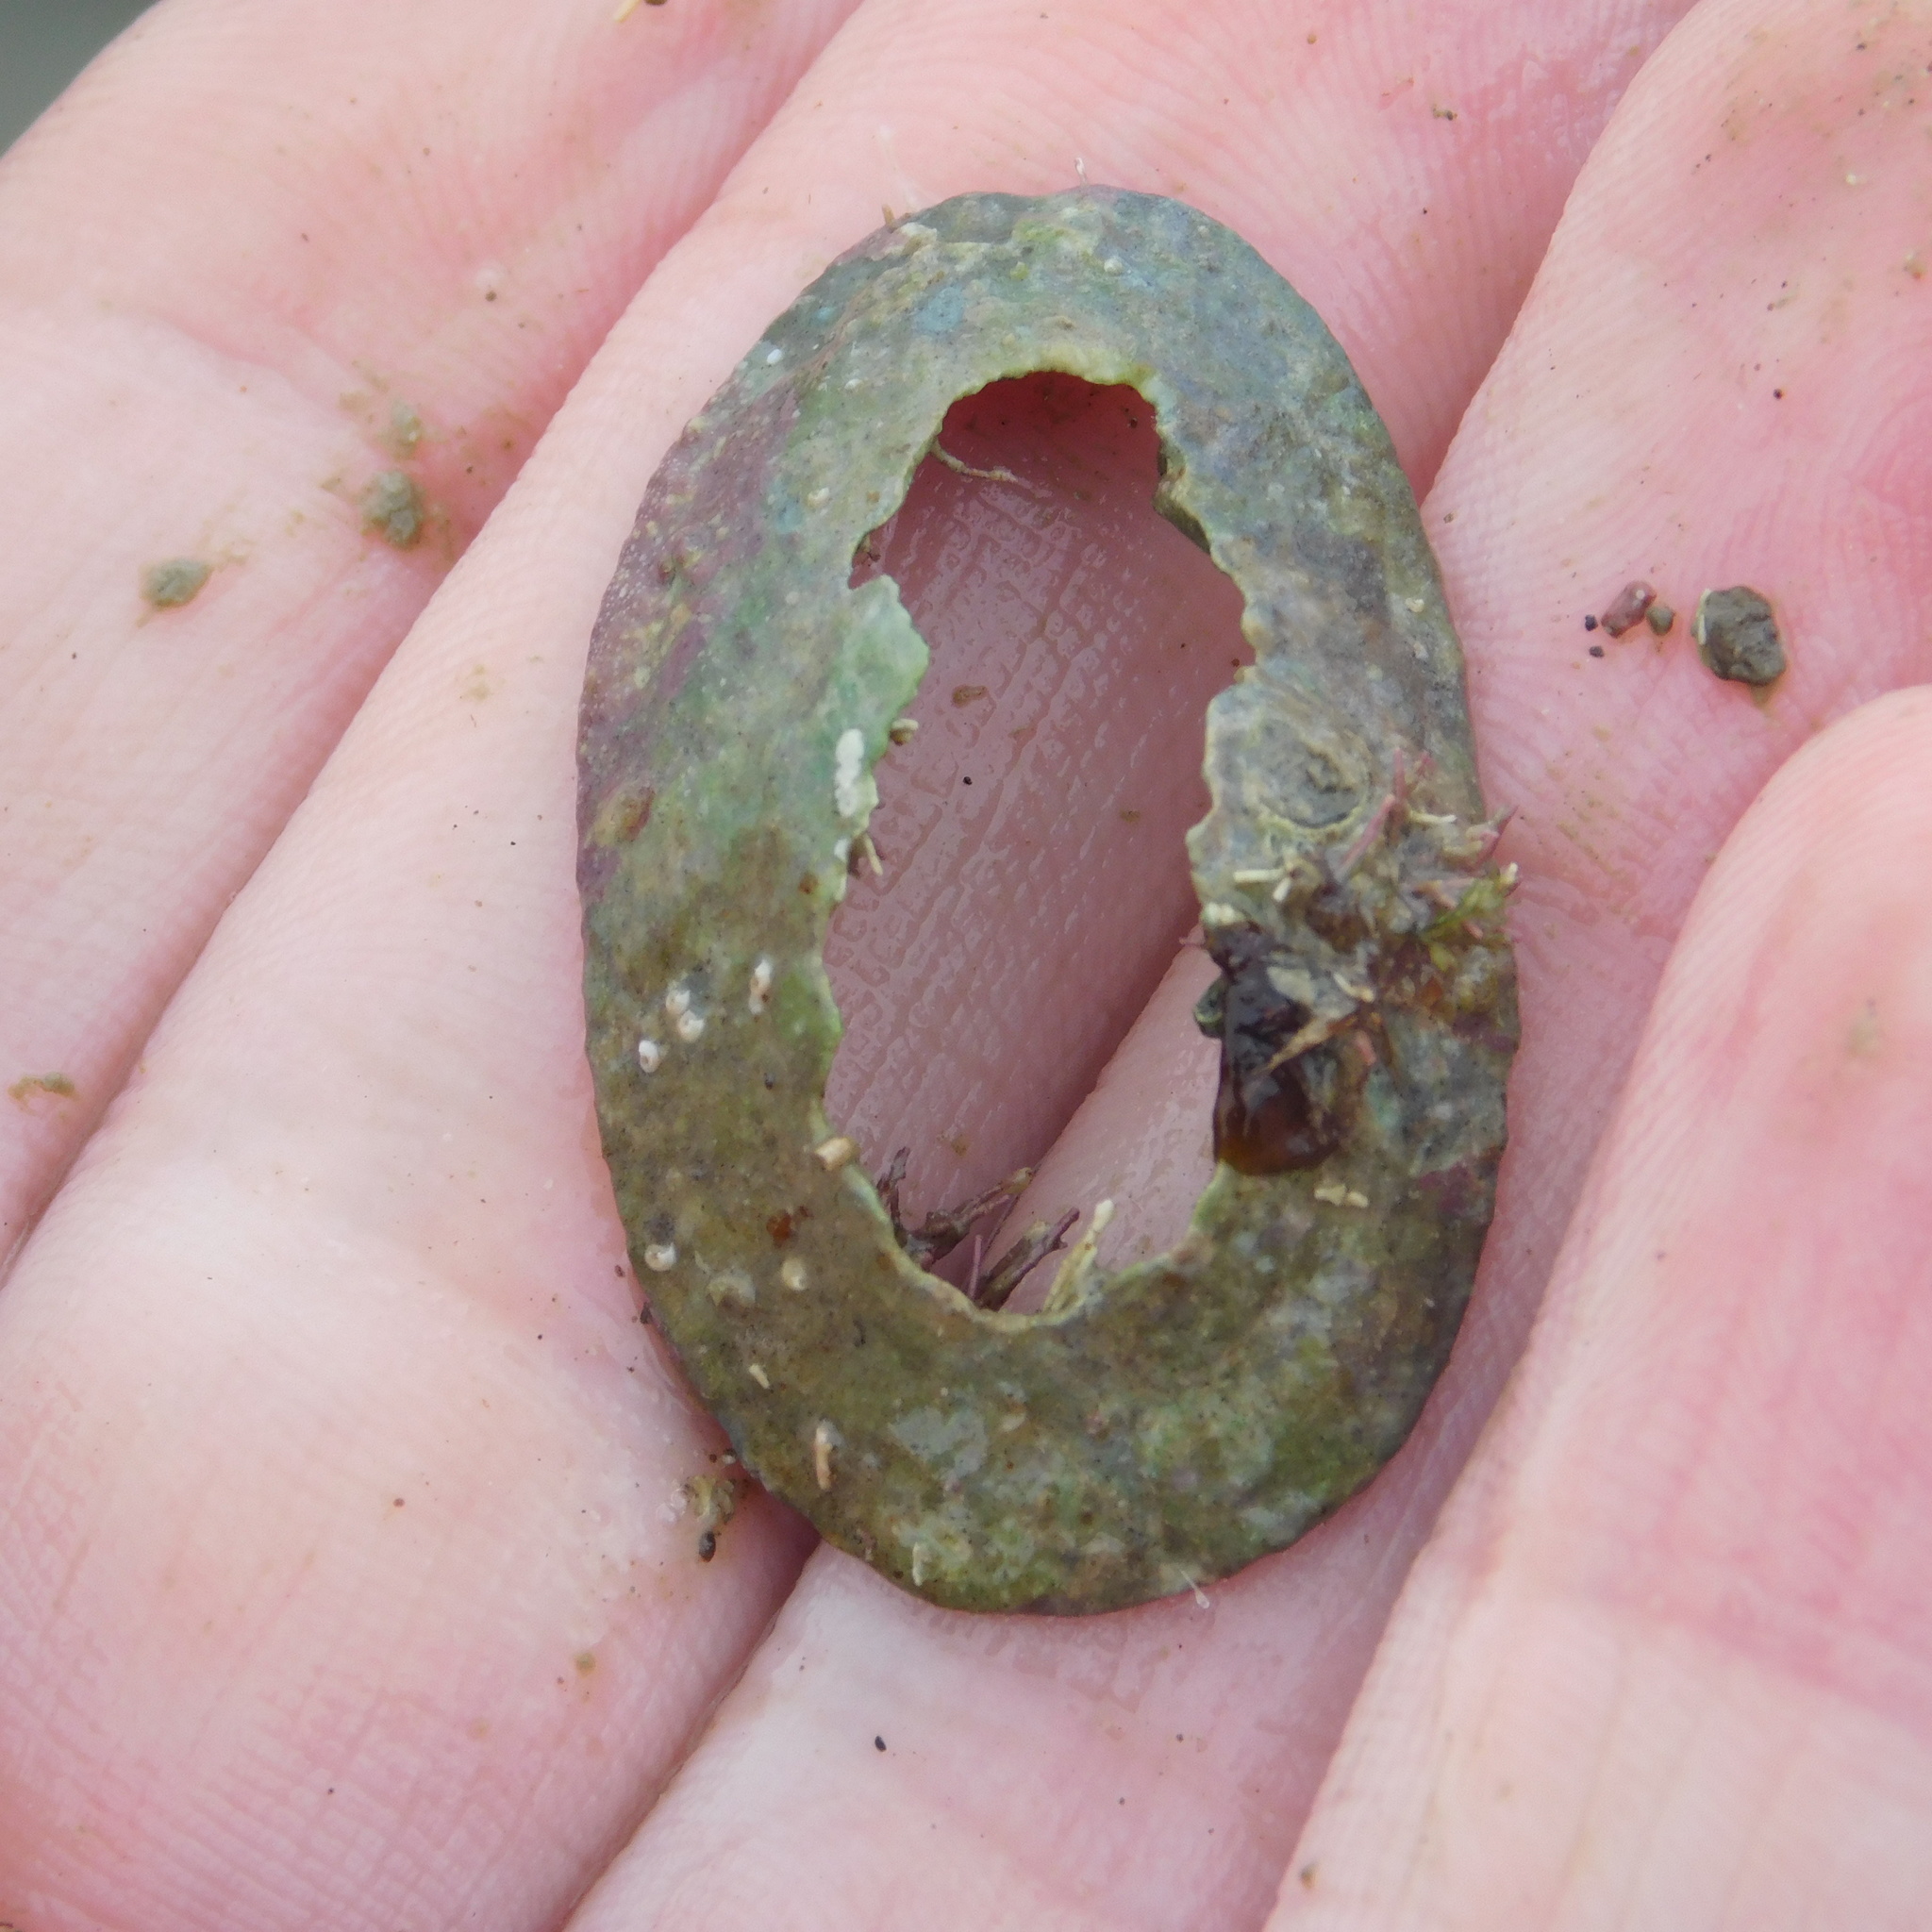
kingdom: Animalia
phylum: Mollusca
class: Gastropoda
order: Lepetellida
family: Fissurellidae
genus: Tugali
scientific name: Tugali elegans
